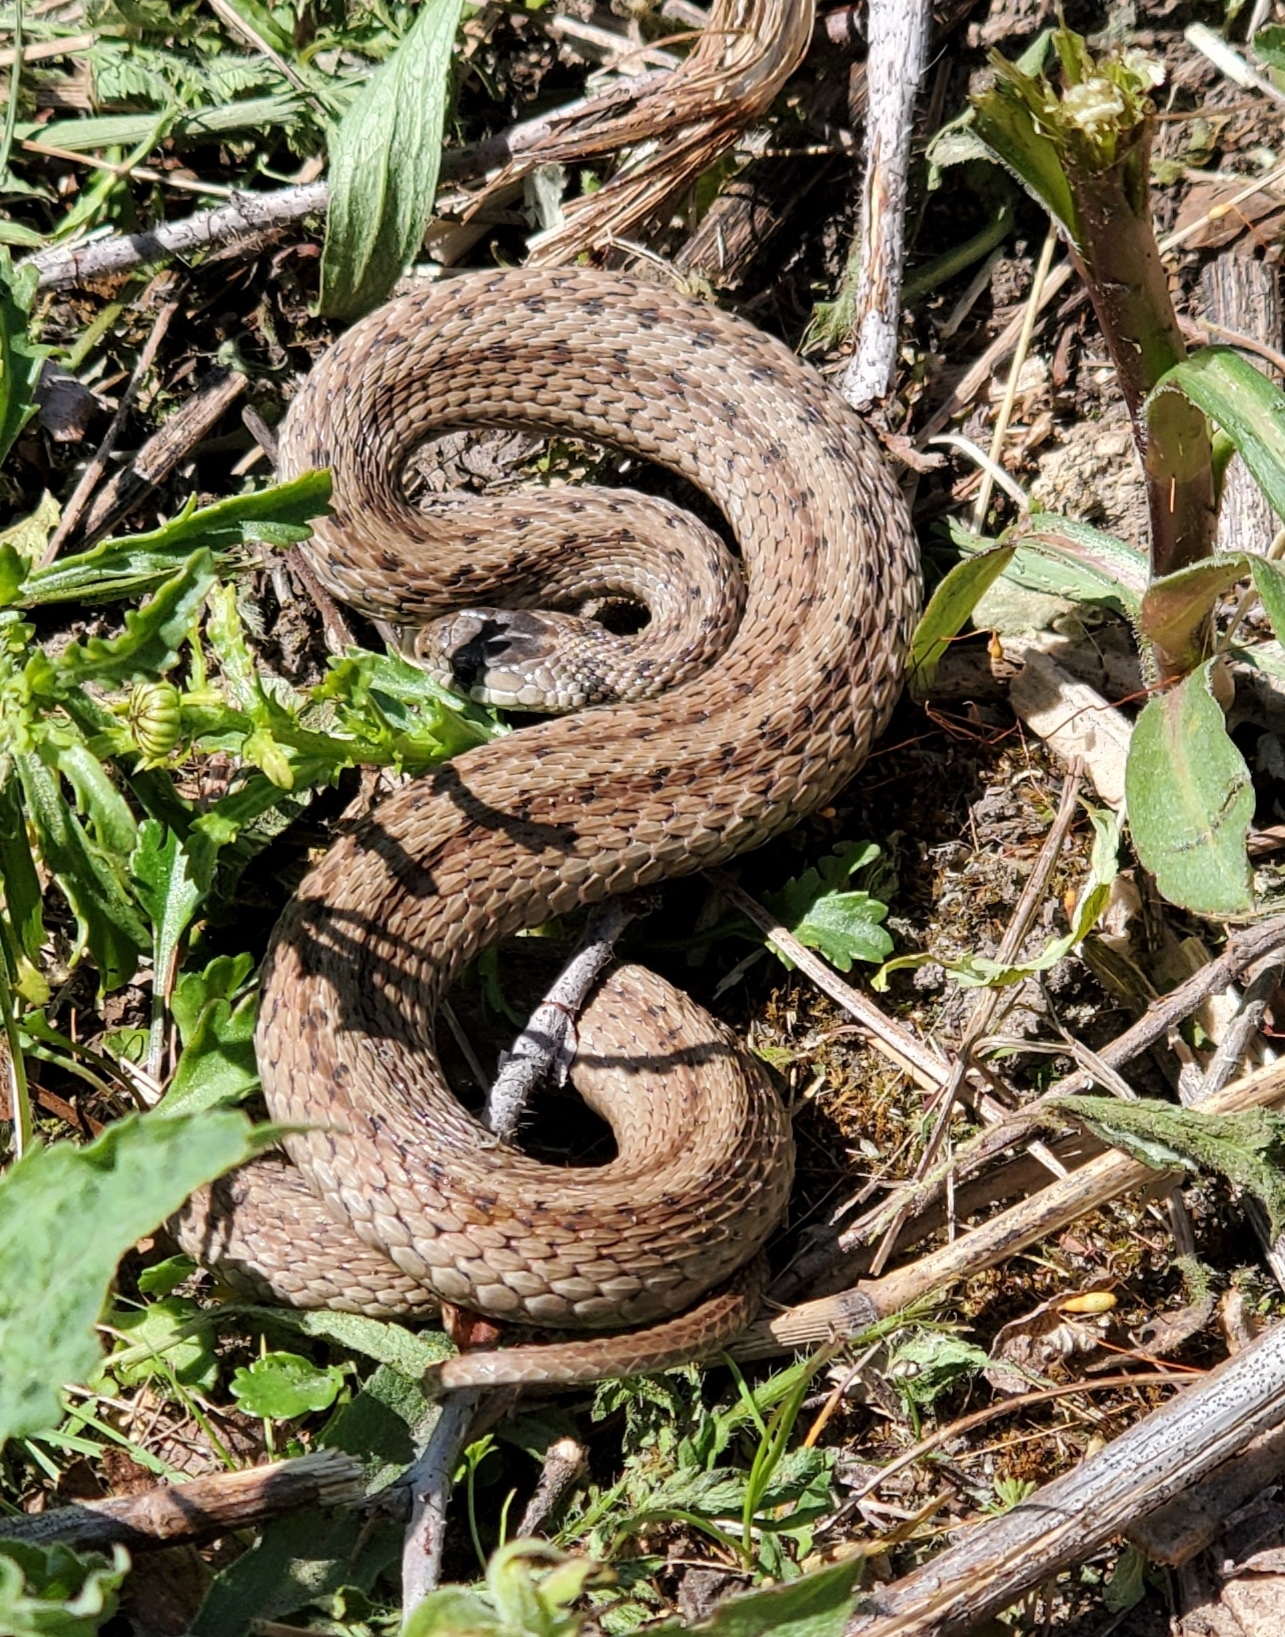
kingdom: Animalia
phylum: Chordata
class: Squamata
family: Colubridae
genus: Storeria
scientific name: Storeria dekayi
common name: (dekay’s) brown snake
